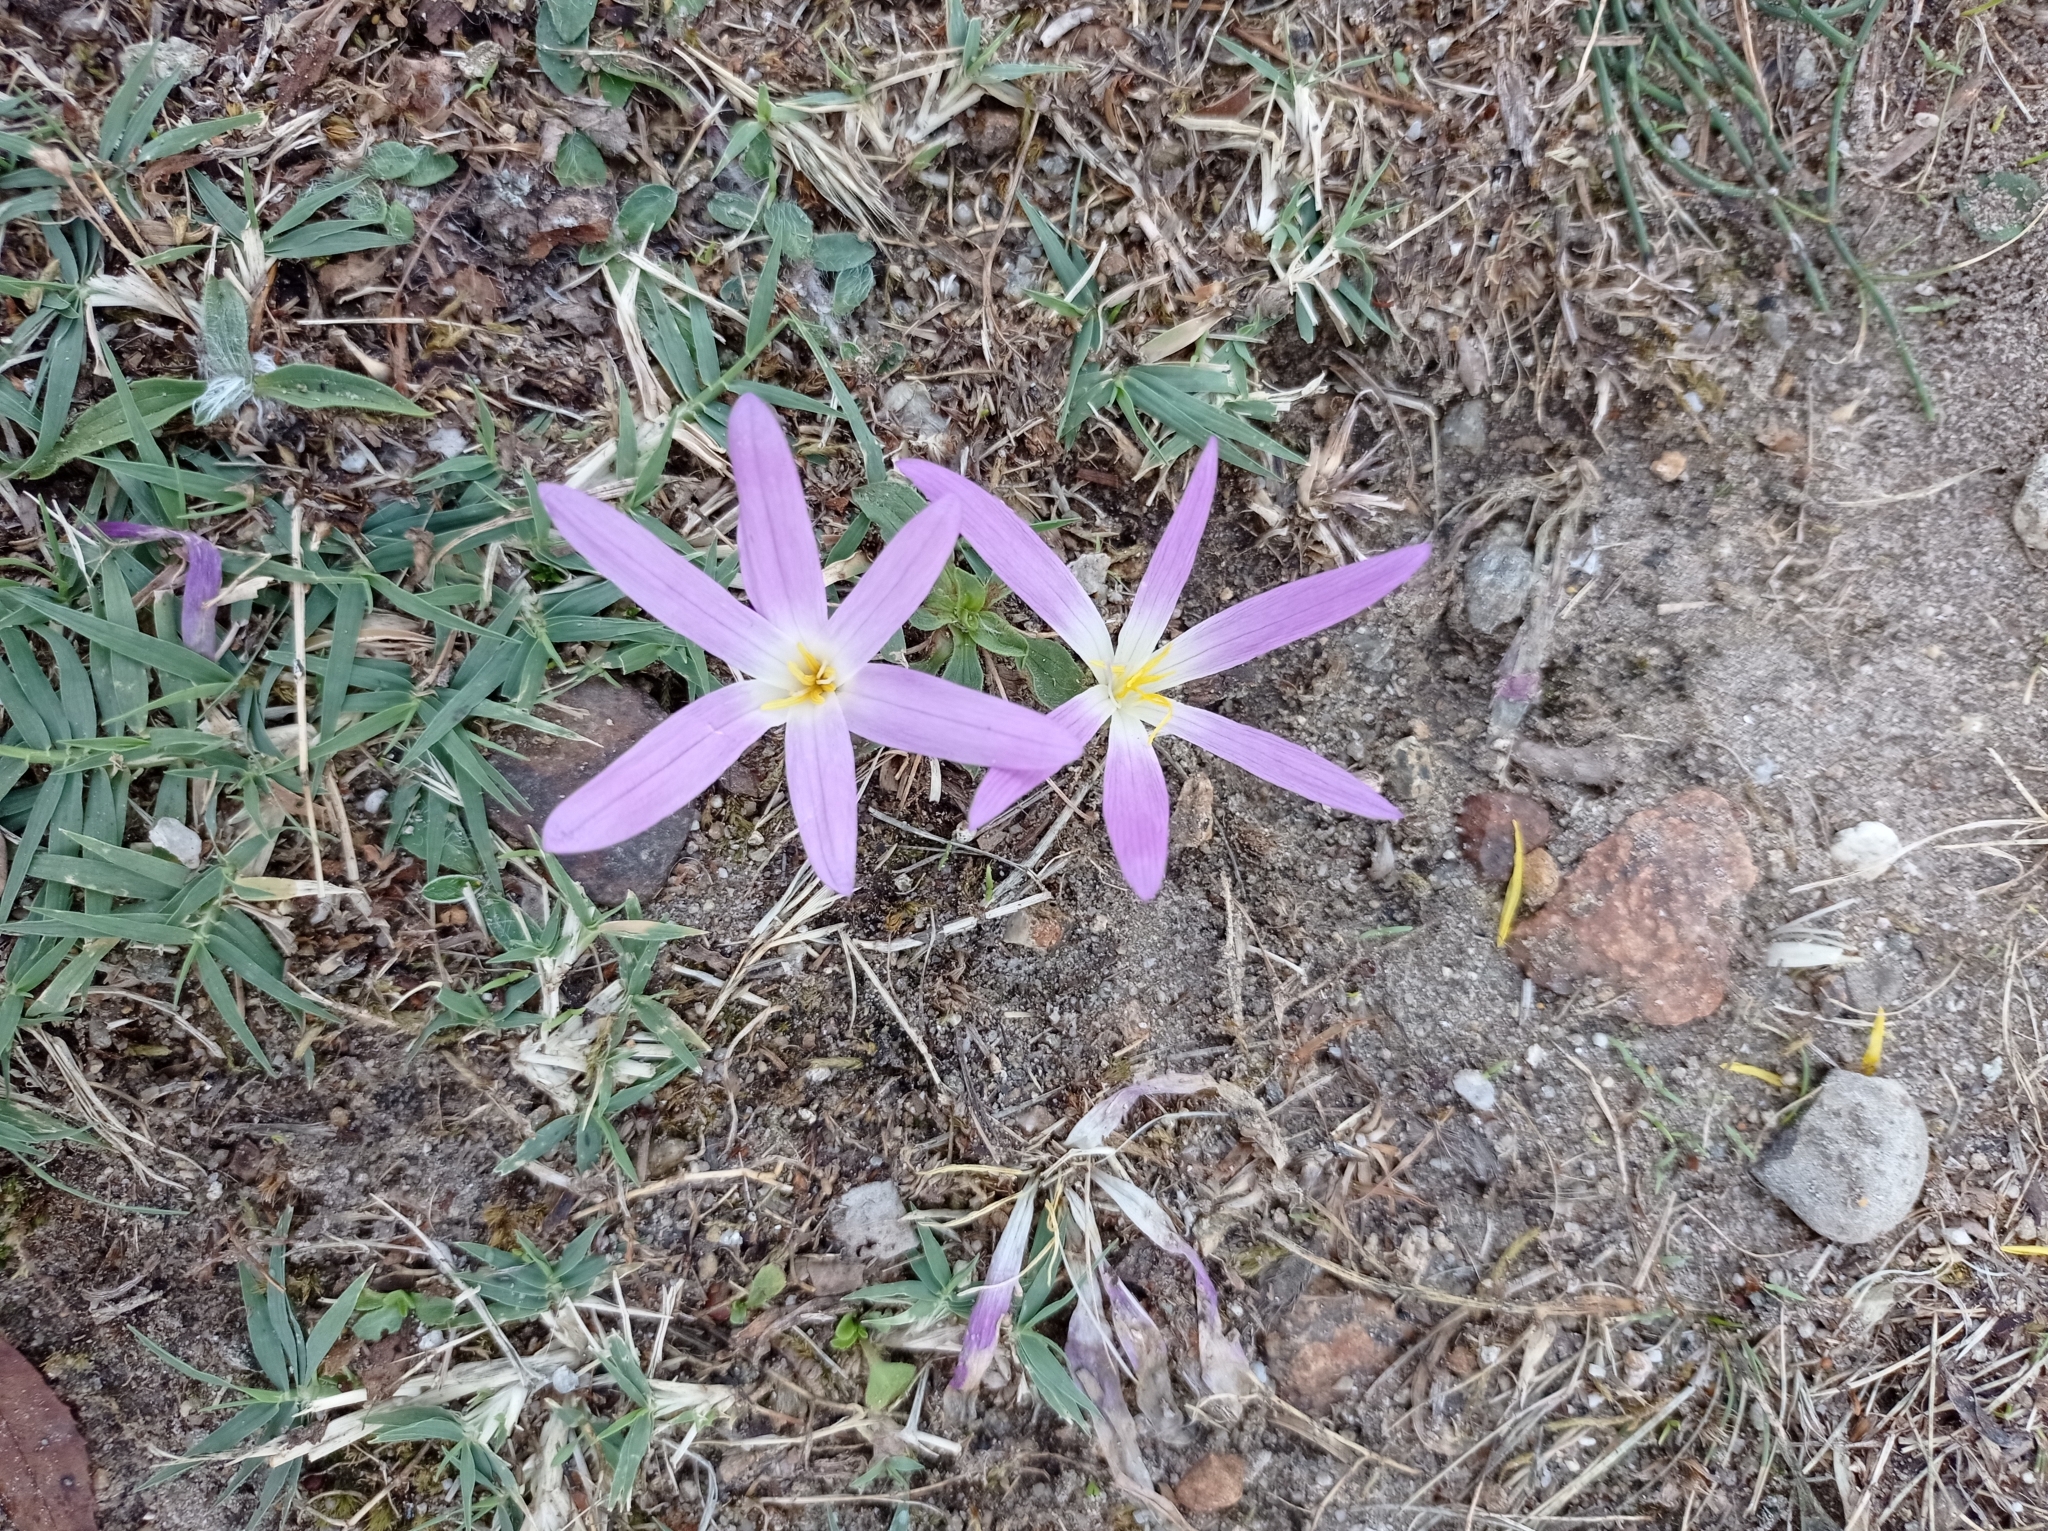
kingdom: Plantae
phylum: Tracheophyta
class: Liliopsida
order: Liliales
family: Colchicaceae
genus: Colchicum
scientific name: Colchicum montanum
